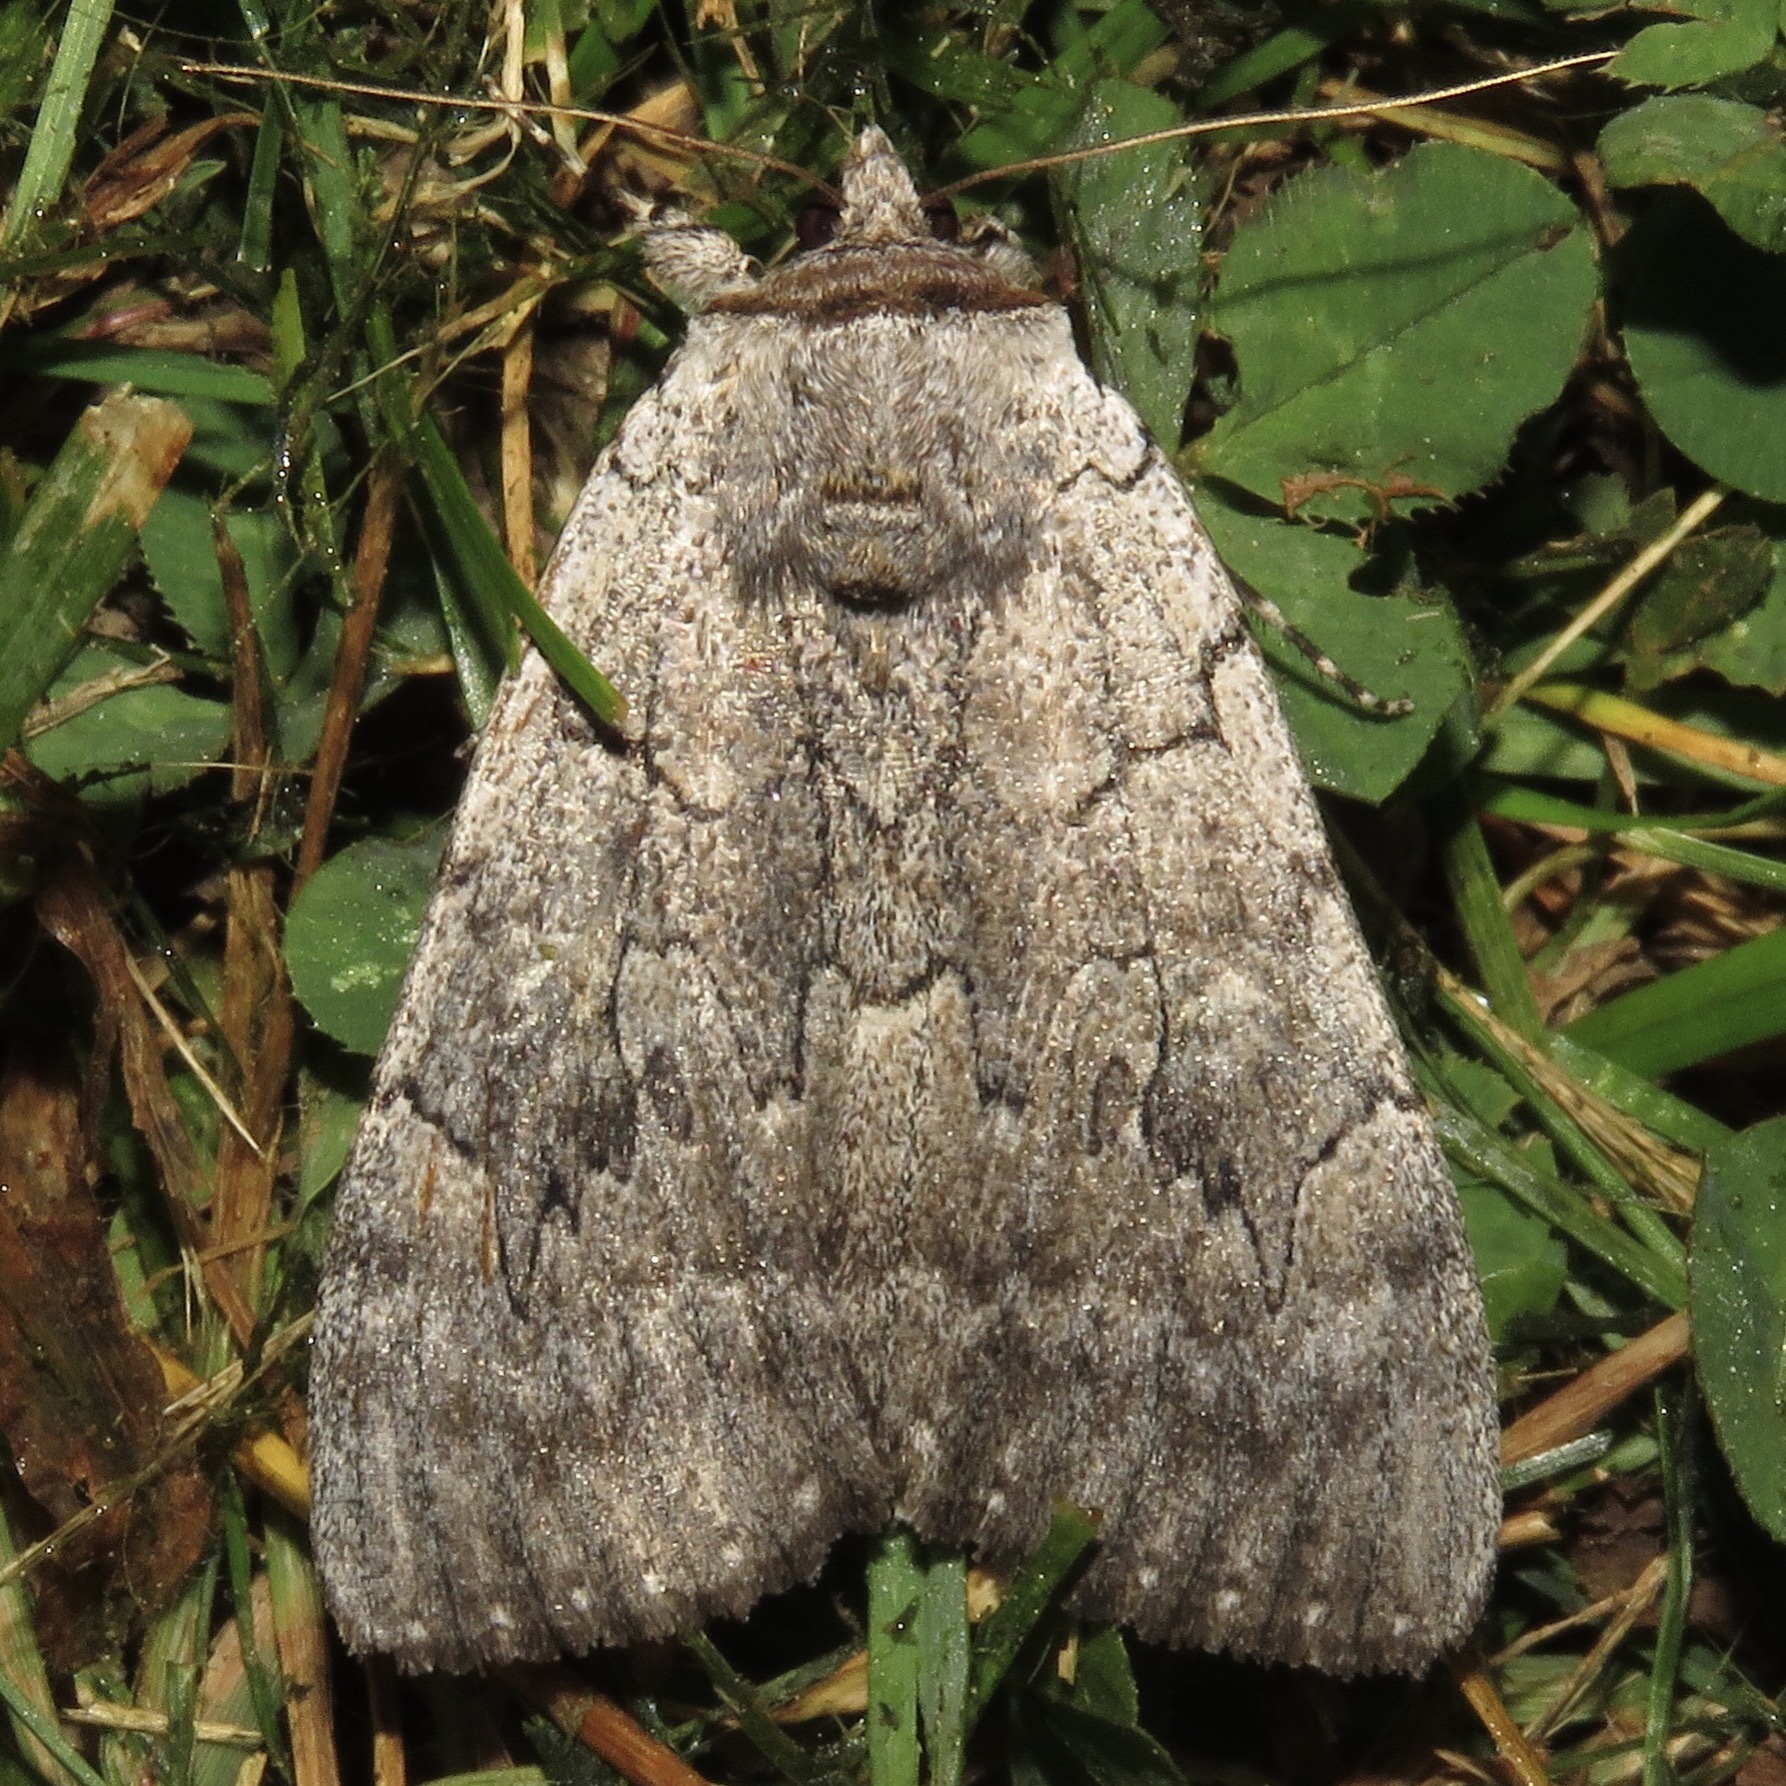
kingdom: Animalia
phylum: Arthropoda
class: Insecta
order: Lepidoptera
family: Erebidae
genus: Catocala
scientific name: Catocala concumbens
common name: Pink underwing
